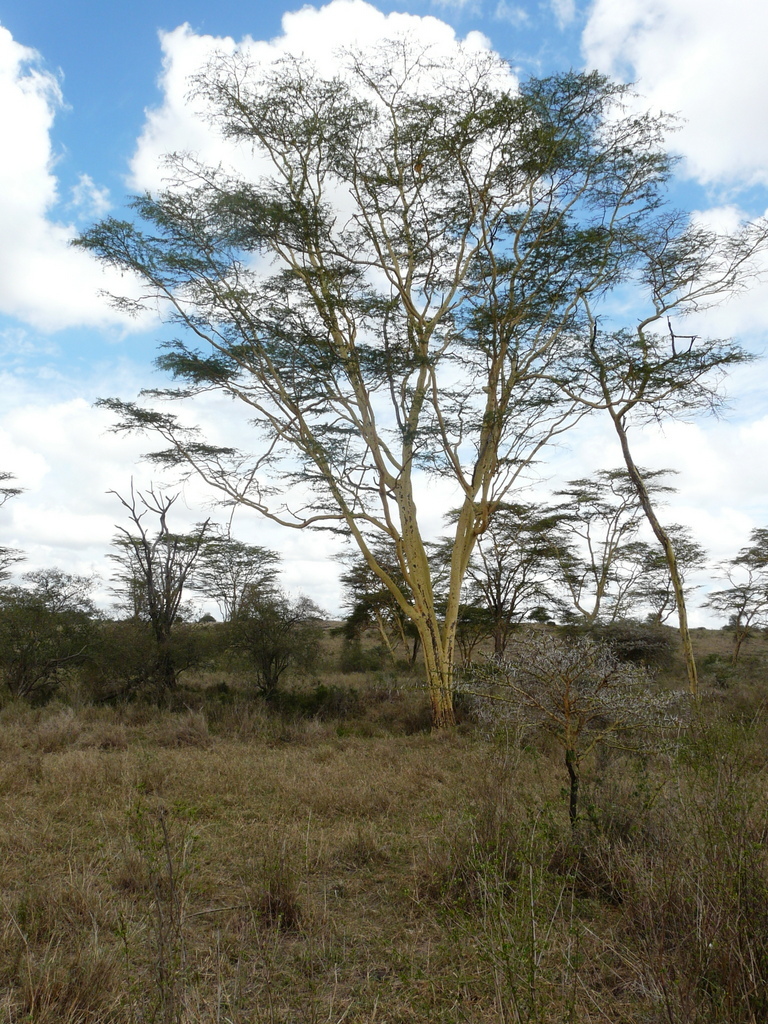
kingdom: Plantae
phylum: Tracheophyta
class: Magnoliopsida
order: Fabales
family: Fabaceae
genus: Vachellia
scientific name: Vachellia xanthophloea
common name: Fever tree
